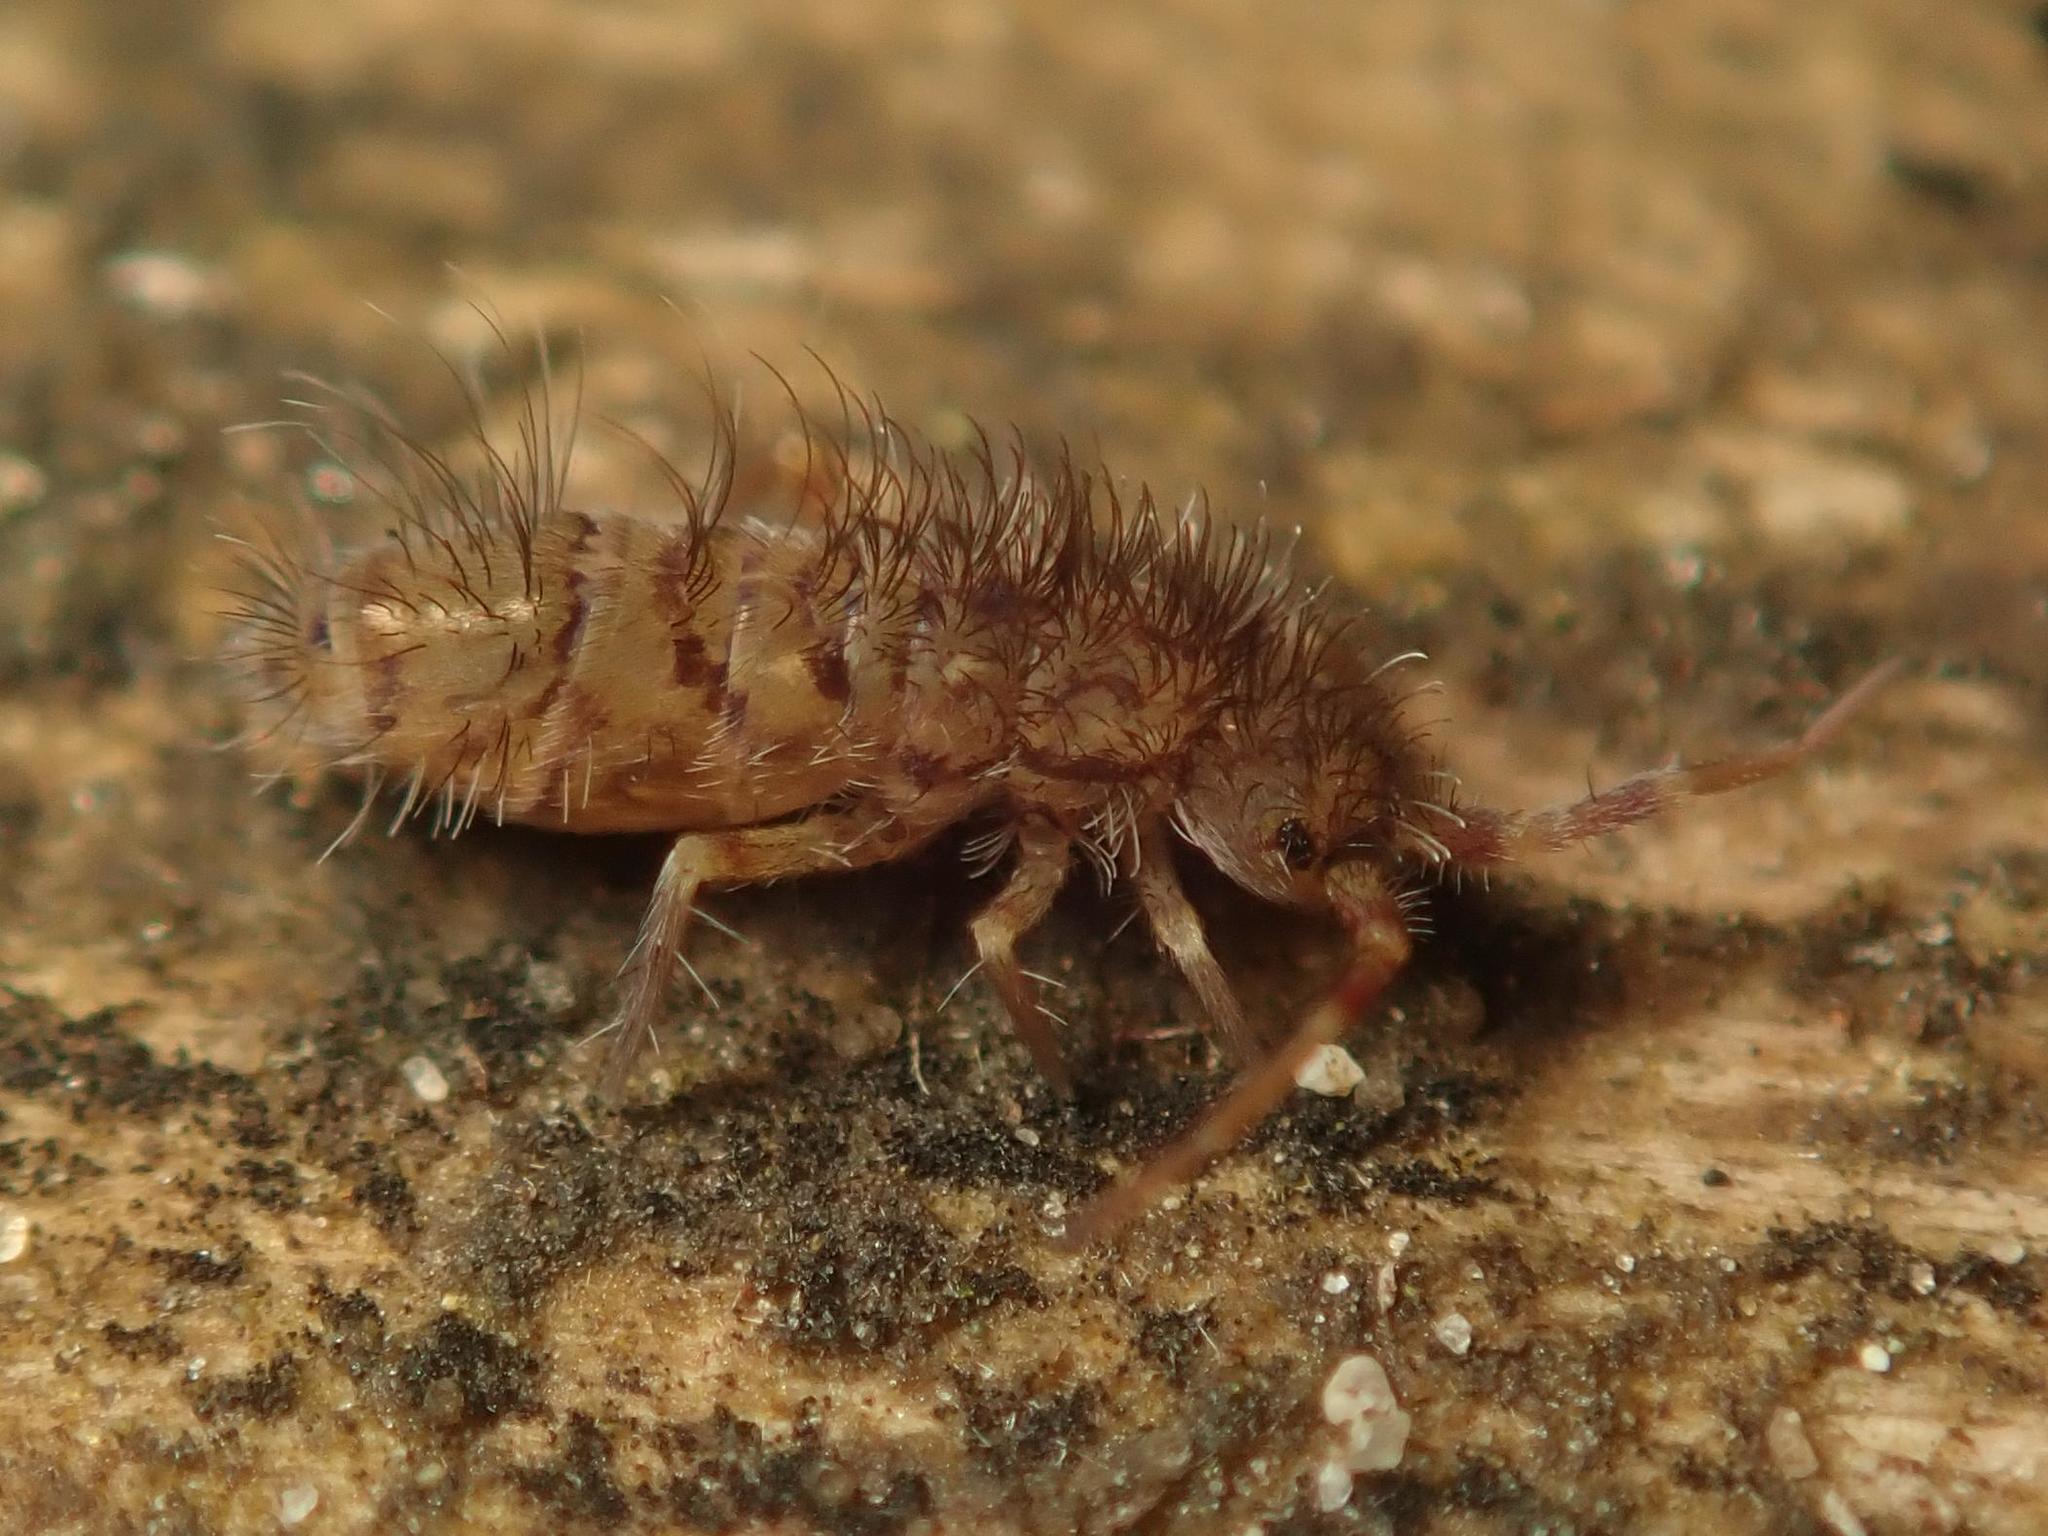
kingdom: Animalia
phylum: Arthropoda
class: Collembola
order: Entomobryomorpha
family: Orchesellidae
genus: Orchesella
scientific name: Orchesella villosa
